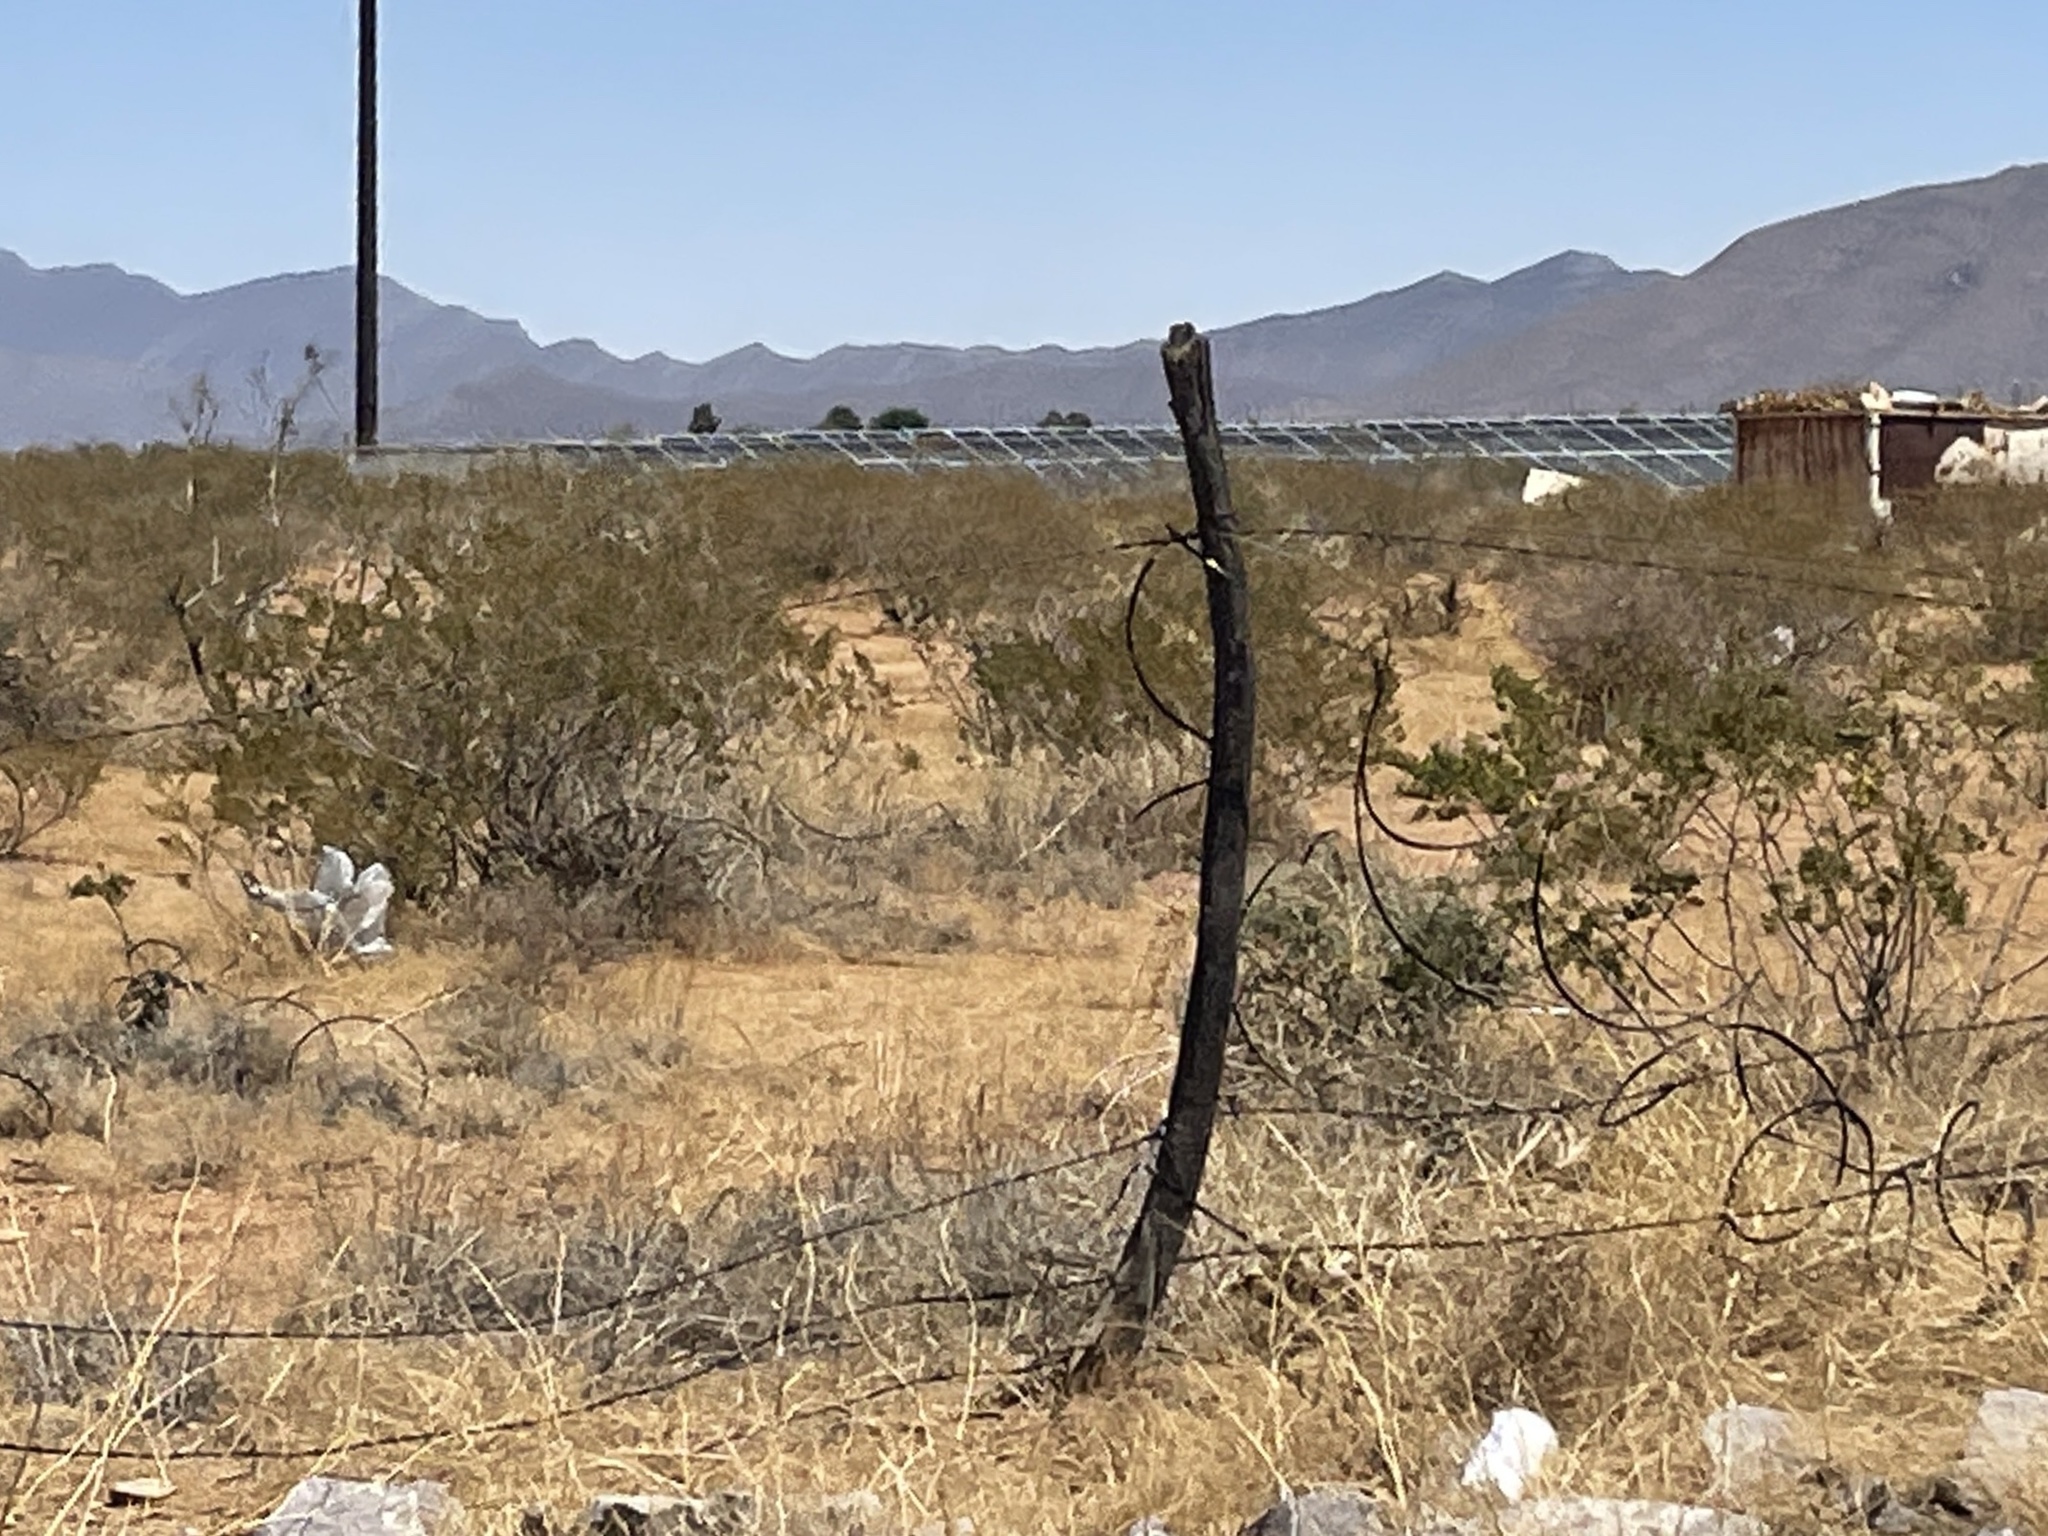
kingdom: Plantae
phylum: Tracheophyta
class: Magnoliopsida
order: Zygophyllales
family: Zygophyllaceae
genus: Larrea
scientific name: Larrea tridentata
